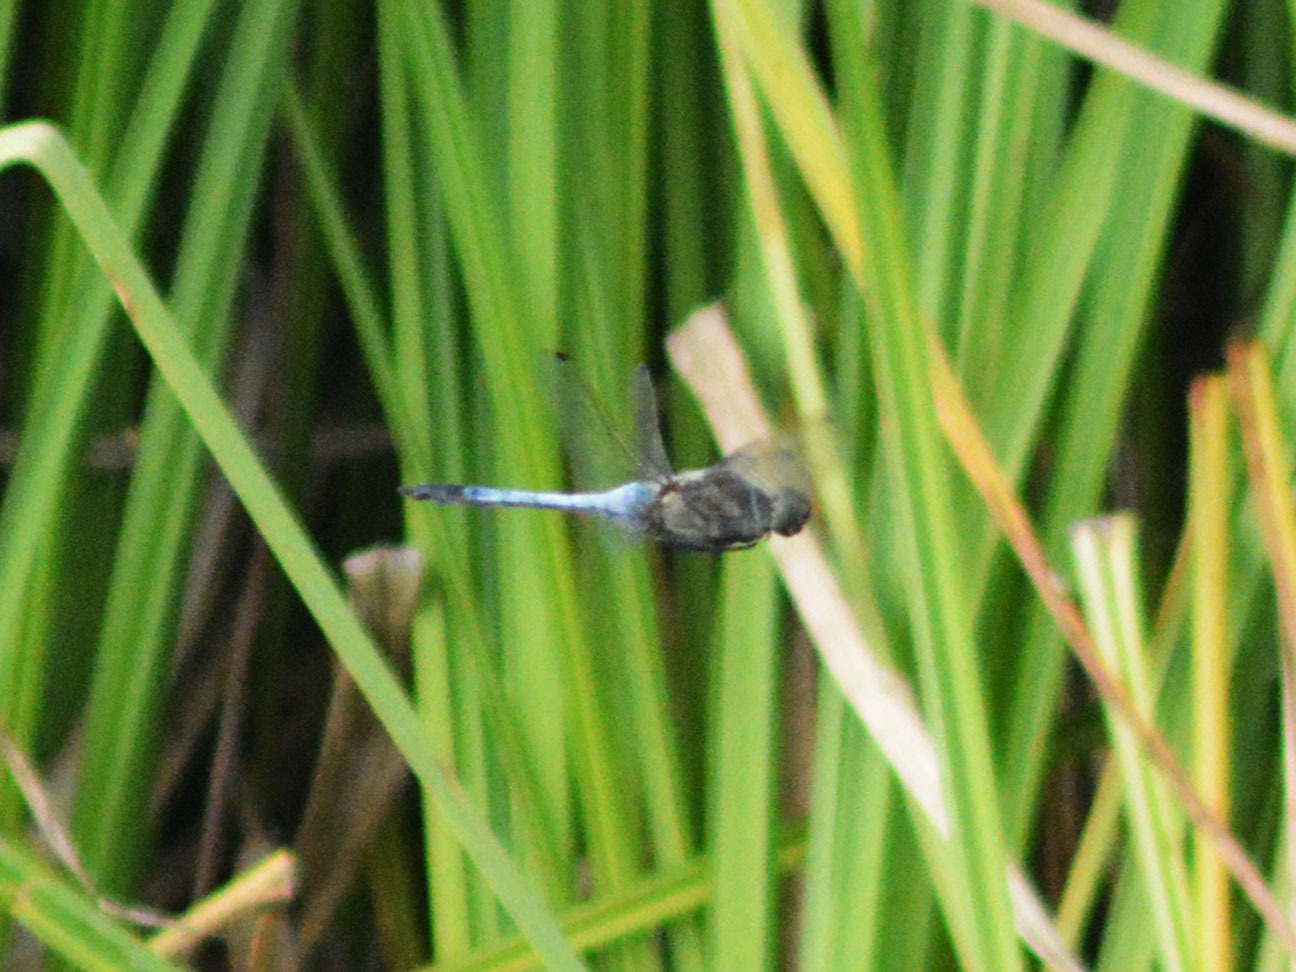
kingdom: Animalia
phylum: Arthropoda
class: Insecta
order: Odonata
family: Libellulidae
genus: Orthetrum
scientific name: Orthetrum cancellatum
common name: Black-tailed skimmer
